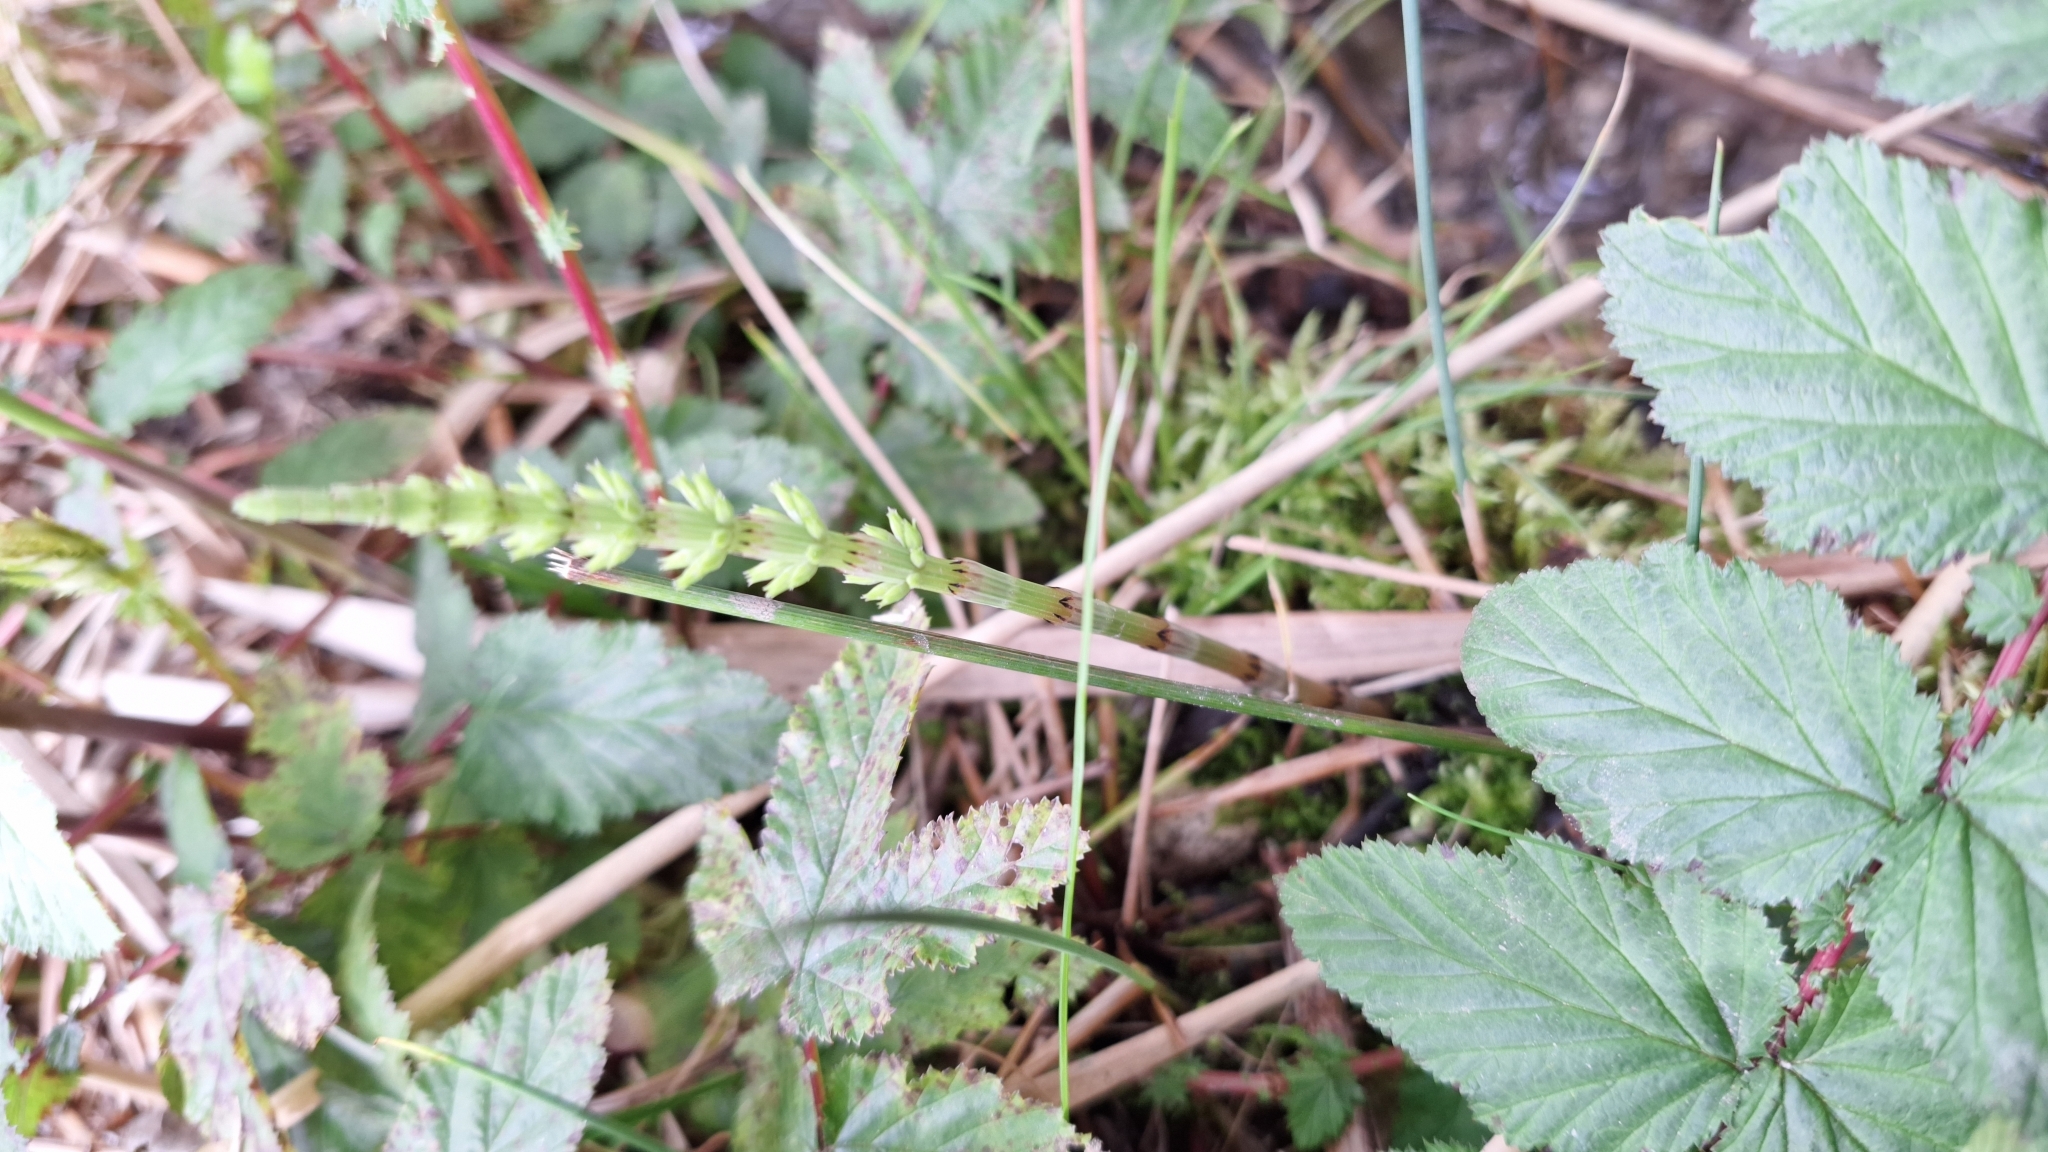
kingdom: Plantae
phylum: Tracheophyta
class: Polypodiopsida
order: Equisetales
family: Equisetaceae
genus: Equisetum
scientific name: Equisetum arvense
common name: Field horsetail
